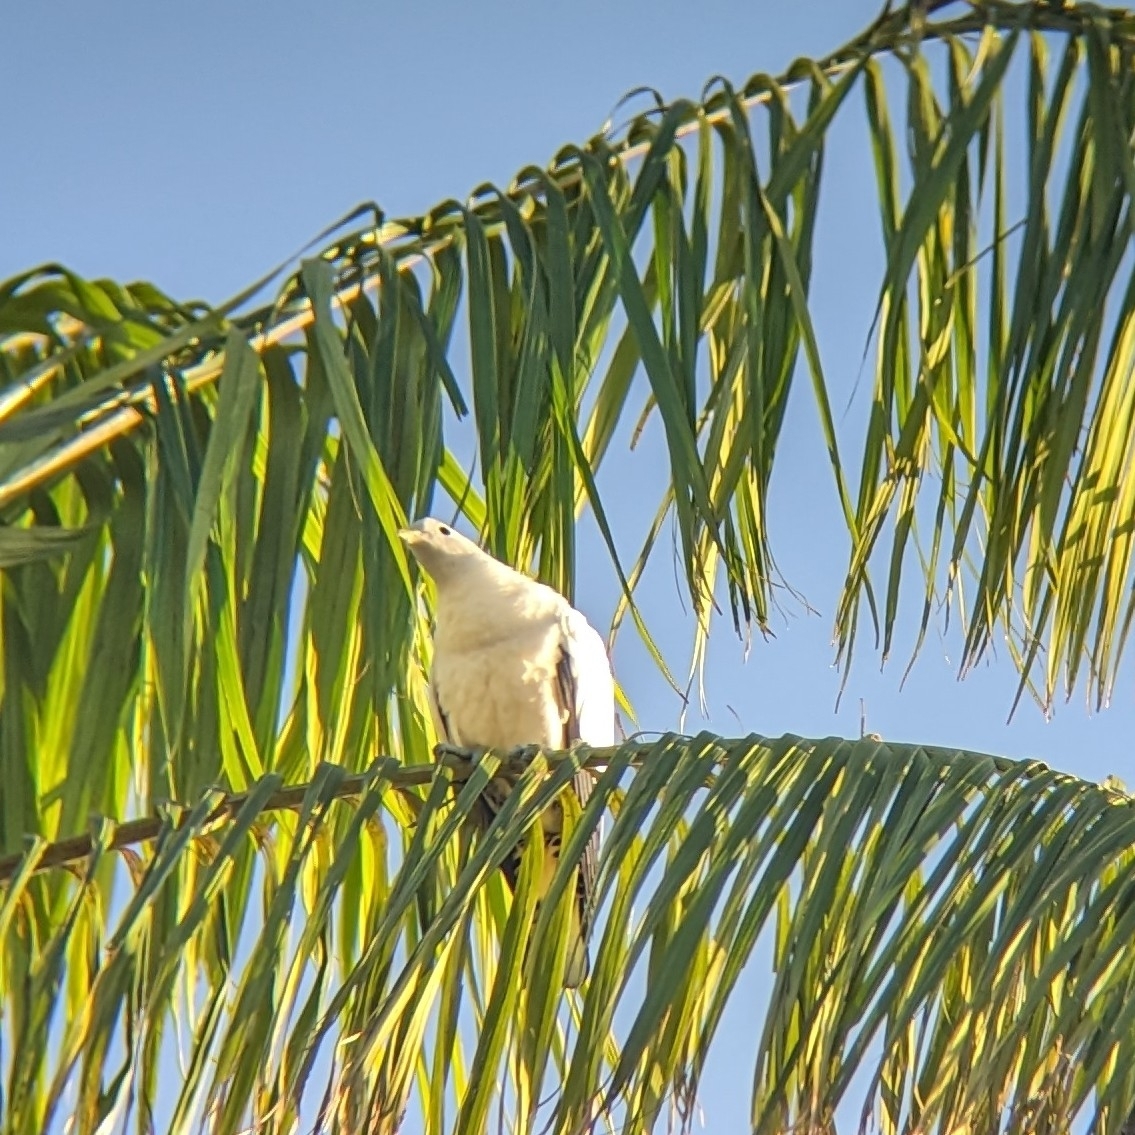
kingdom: Animalia
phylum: Chordata
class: Aves
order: Columbiformes
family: Columbidae
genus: Ducula
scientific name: Ducula spilorrhoa
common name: Torresian imperial pigeon
